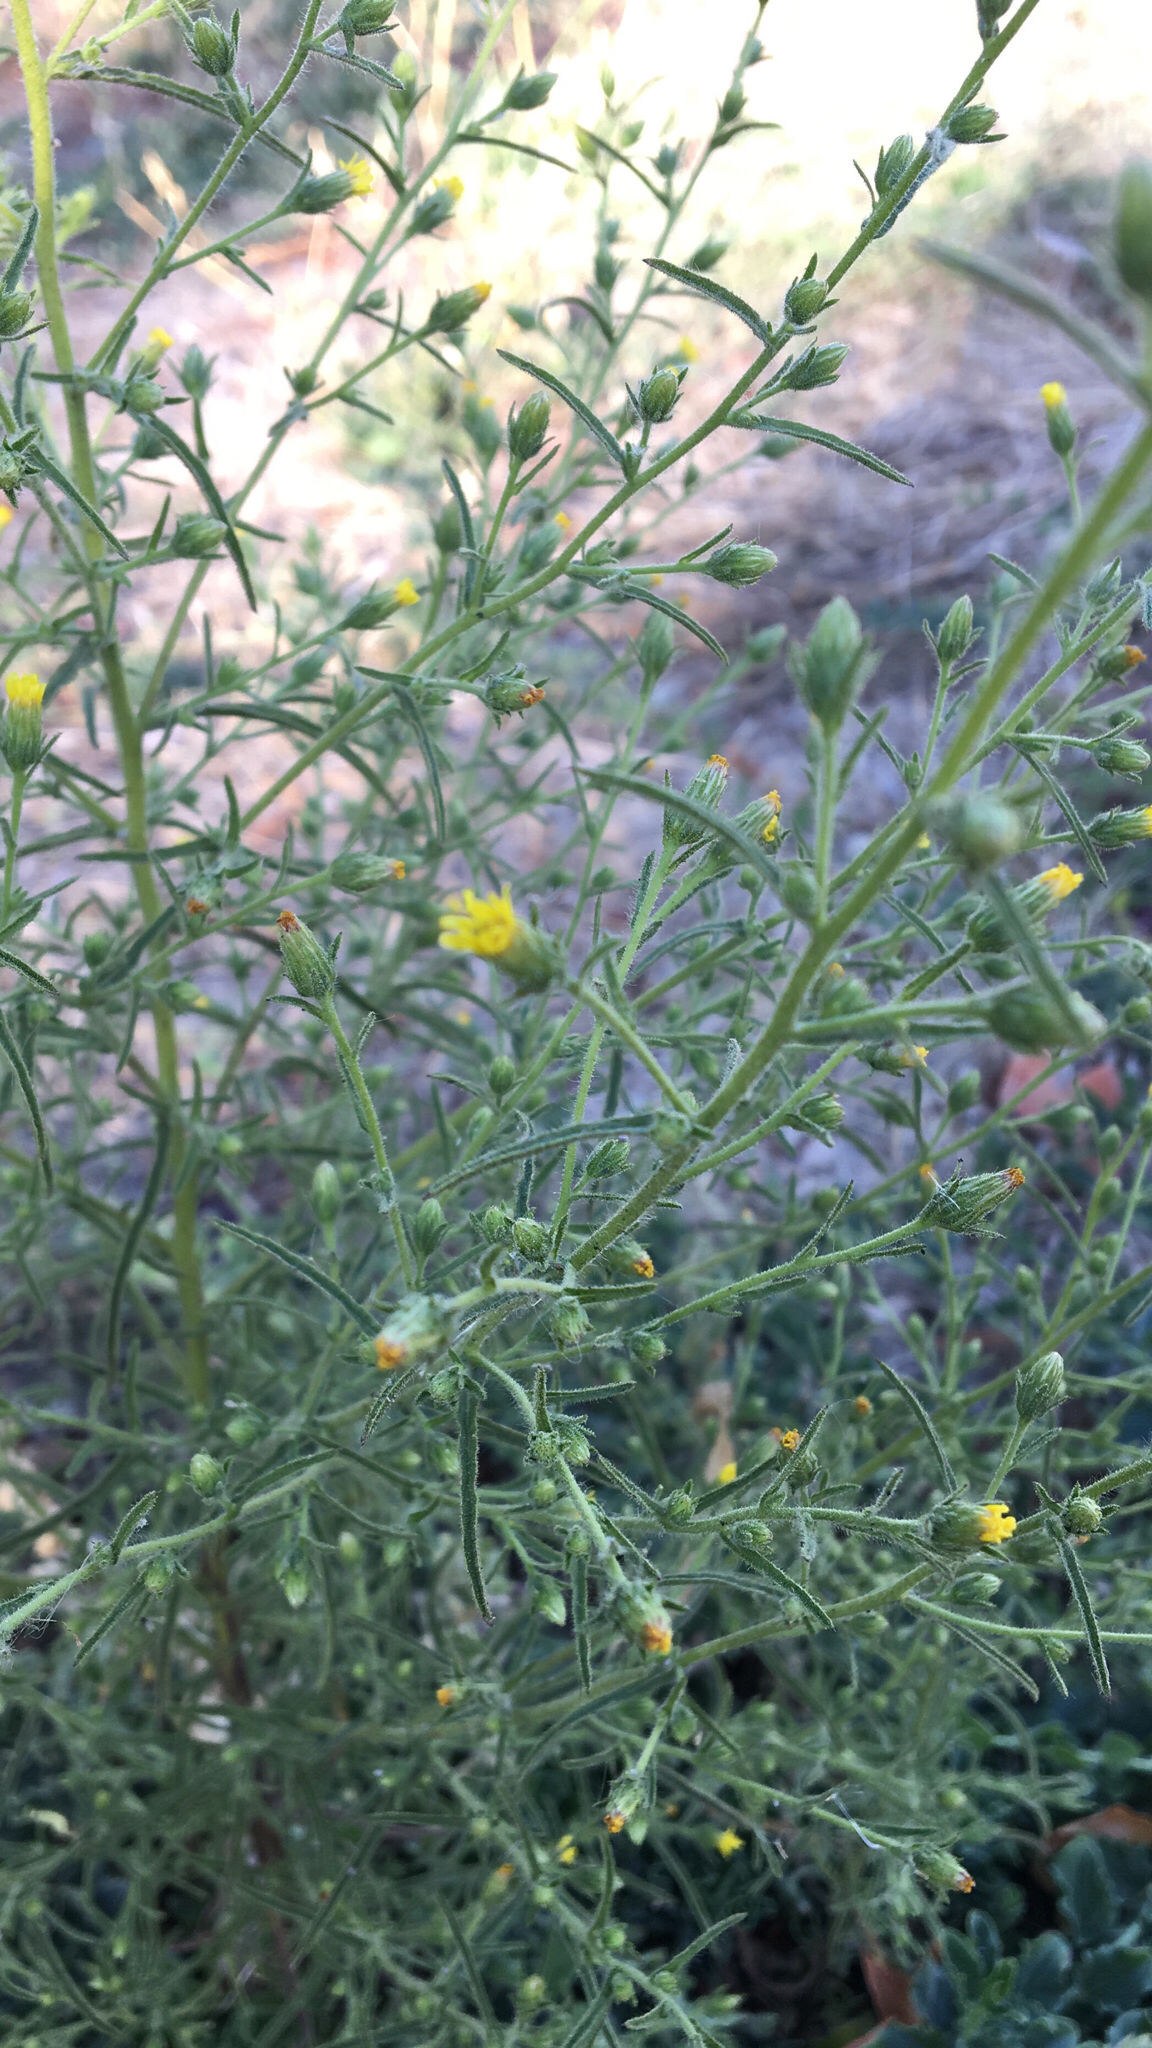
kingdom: Plantae
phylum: Tracheophyta
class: Magnoliopsida
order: Asterales
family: Asteraceae
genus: Dittrichia
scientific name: Dittrichia graveolens
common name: Stinking fleabane
